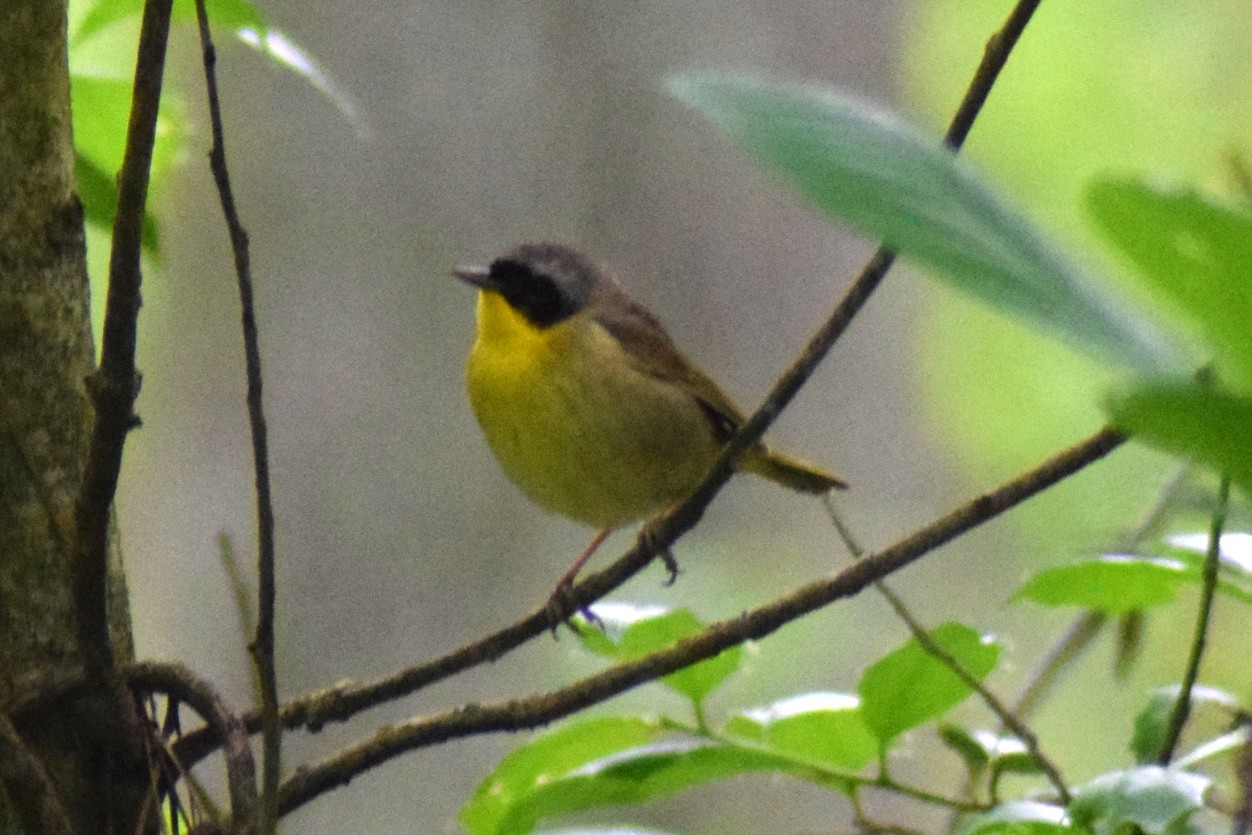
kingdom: Animalia
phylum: Chordata
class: Aves
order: Passeriformes
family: Parulidae
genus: Geothlypis
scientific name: Geothlypis trichas
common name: Common yellowthroat
